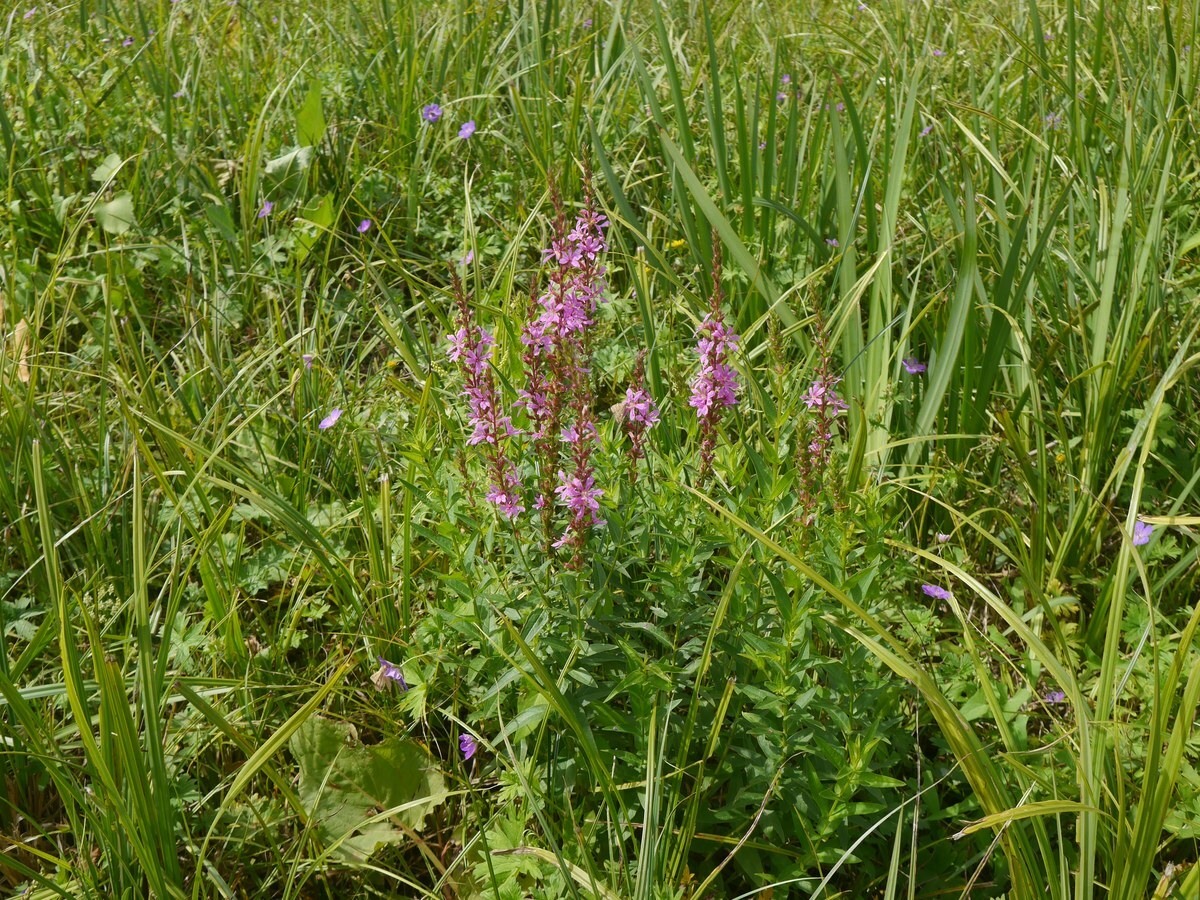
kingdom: Plantae
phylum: Tracheophyta
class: Magnoliopsida
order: Myrtales
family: Lythraceae
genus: Lythrum
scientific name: Lythrum salicaria
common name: Purple loosestrife
